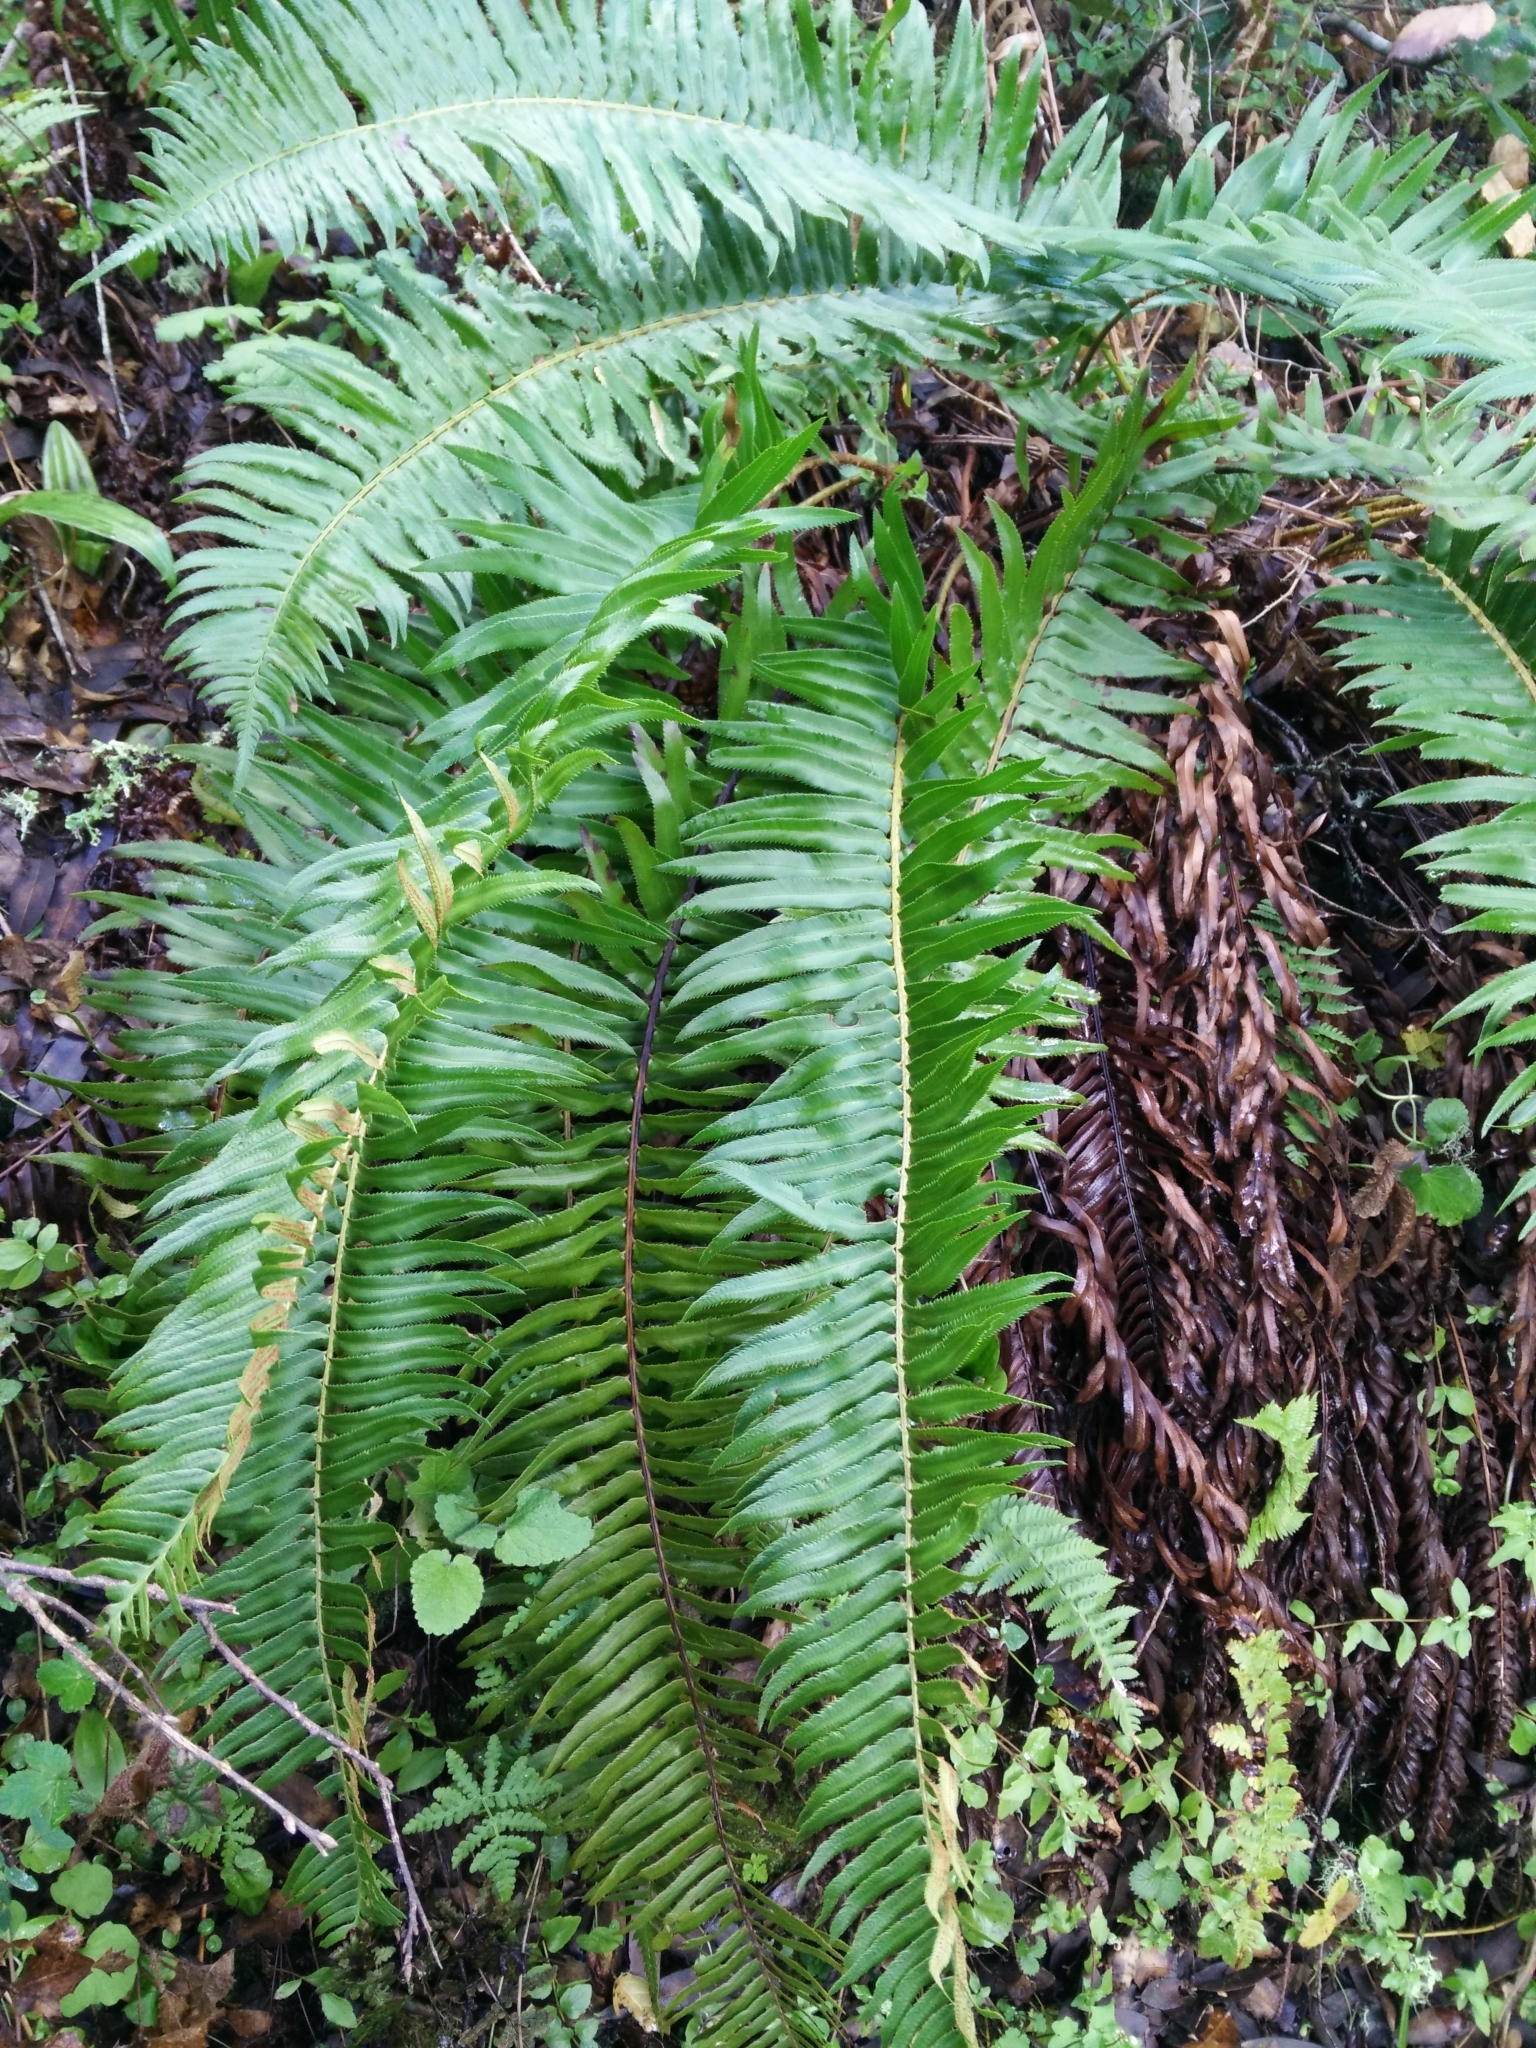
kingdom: Plantae
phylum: Tracheophyta
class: Polypodiopsida
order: Polypodiales
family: Dryopteridaceae
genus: Polystichum
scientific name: Polystichum munitum
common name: Western sword-fern
